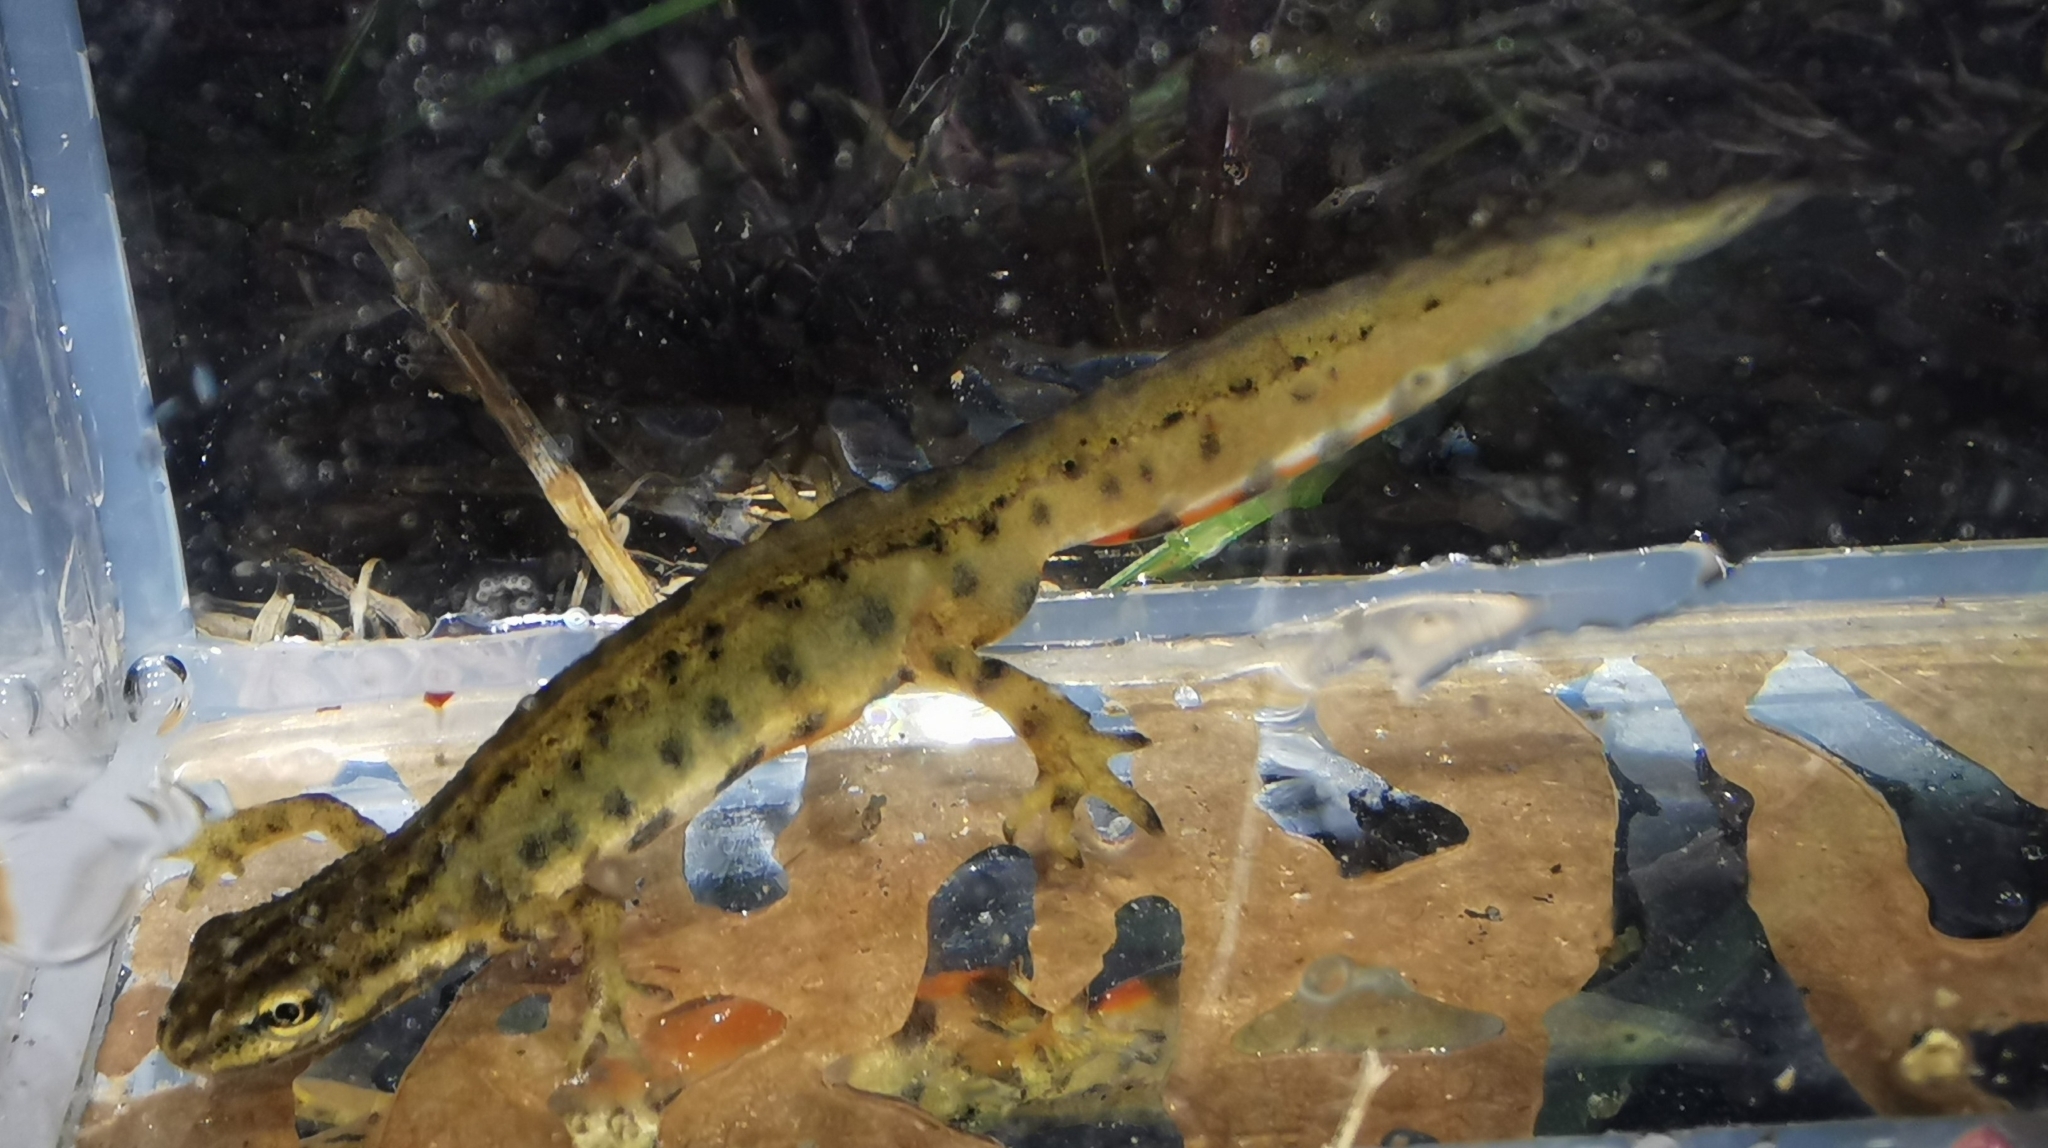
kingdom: Animalia
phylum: Chordata
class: Amphibia
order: Caudata
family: Salamandridae
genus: Lissotriton
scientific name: Lissotriton vulgaris
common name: Smooth newt
